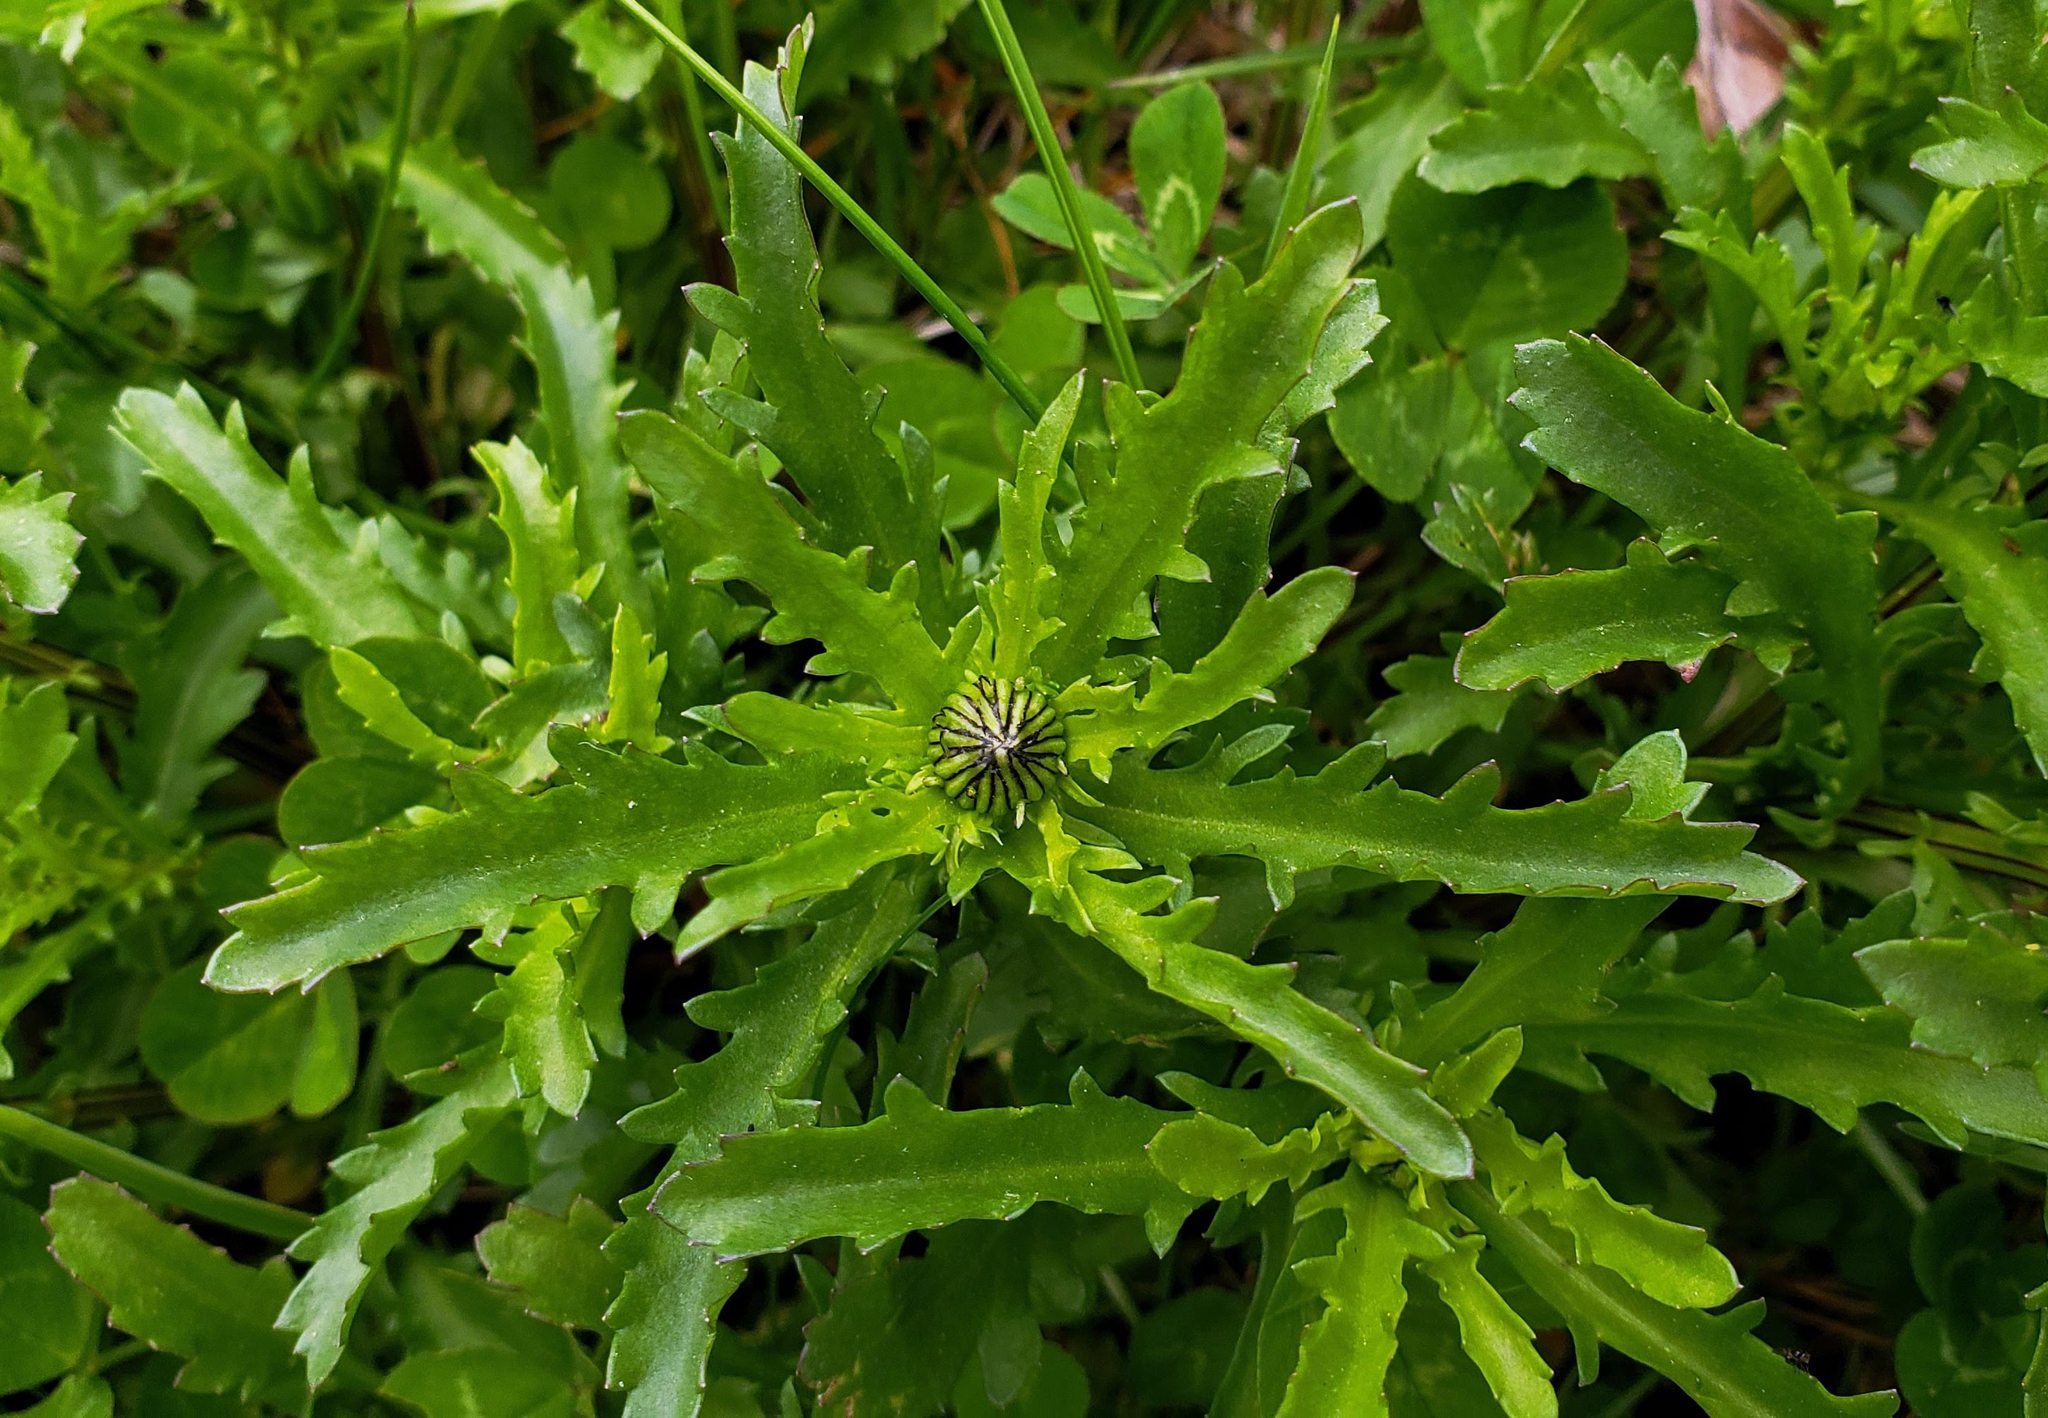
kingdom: Plantae
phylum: Tracheophyta
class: Magnoliopsida
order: Asterales
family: Asteraceae
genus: Leucanthemum
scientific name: Leucanthemum vulgare
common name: Oxeye daisy
